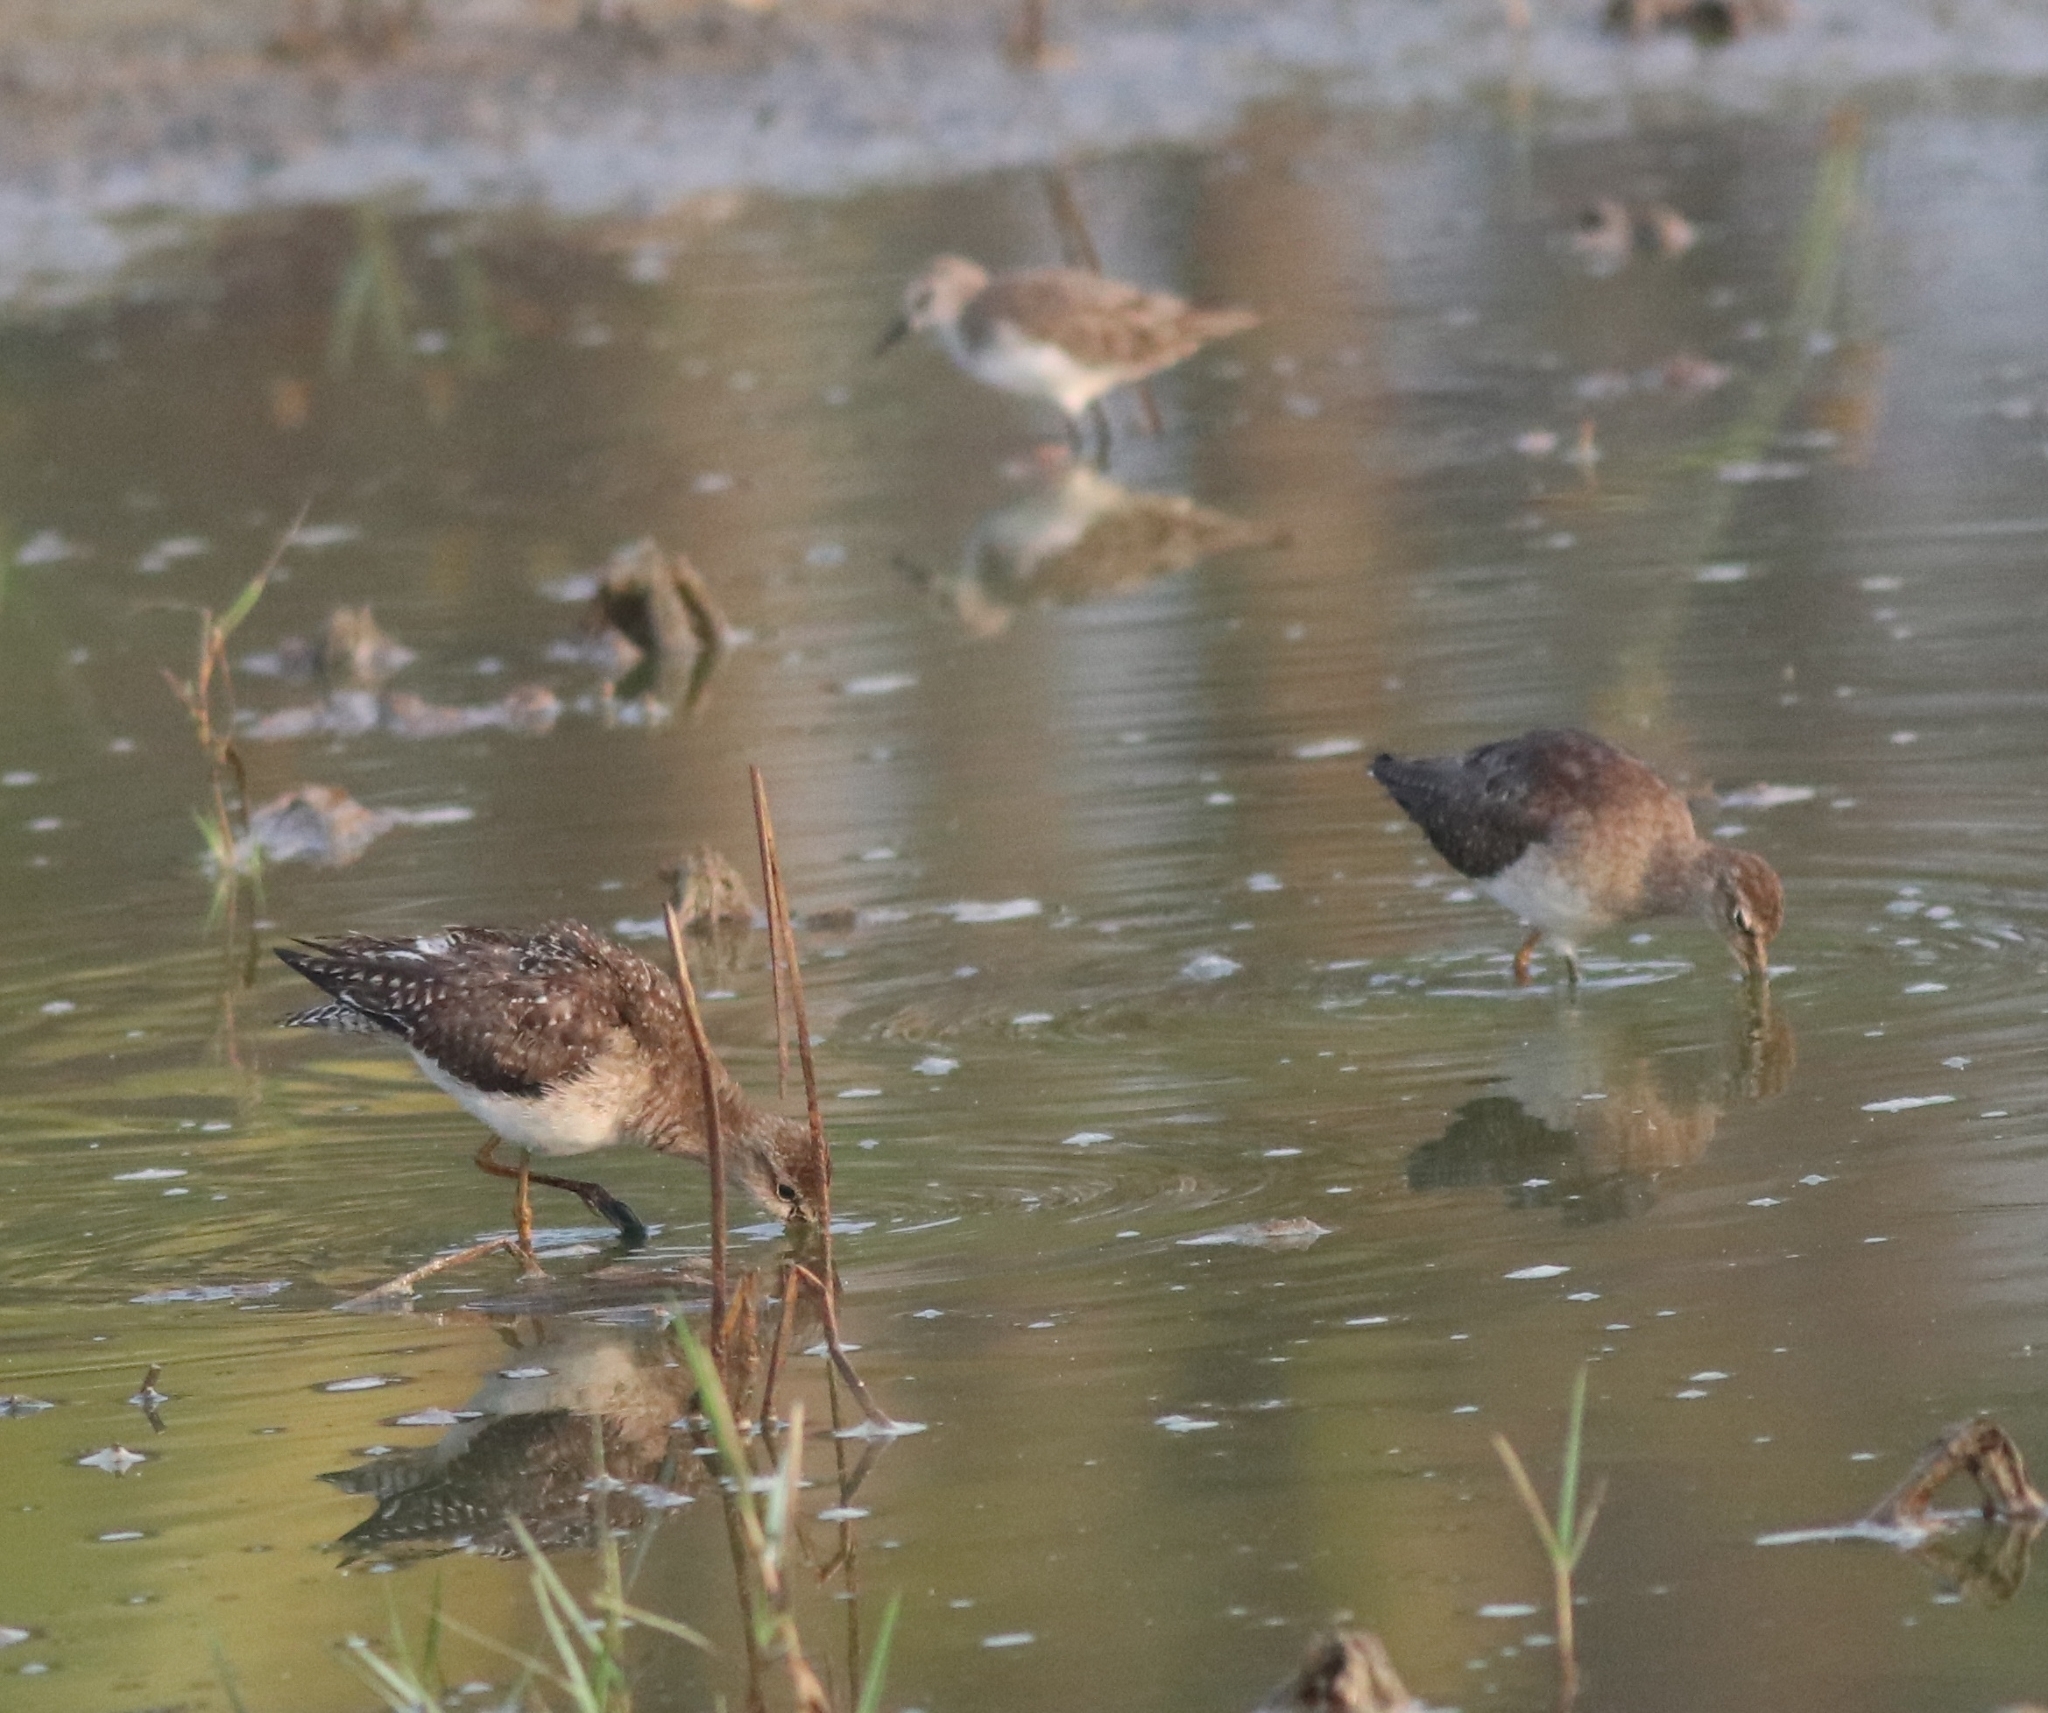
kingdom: Animalia
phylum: Chordata
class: Aves
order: Charadriiformes
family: Scolopacidae
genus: Tringa
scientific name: Tringa glareola
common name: Wood sandpiper
